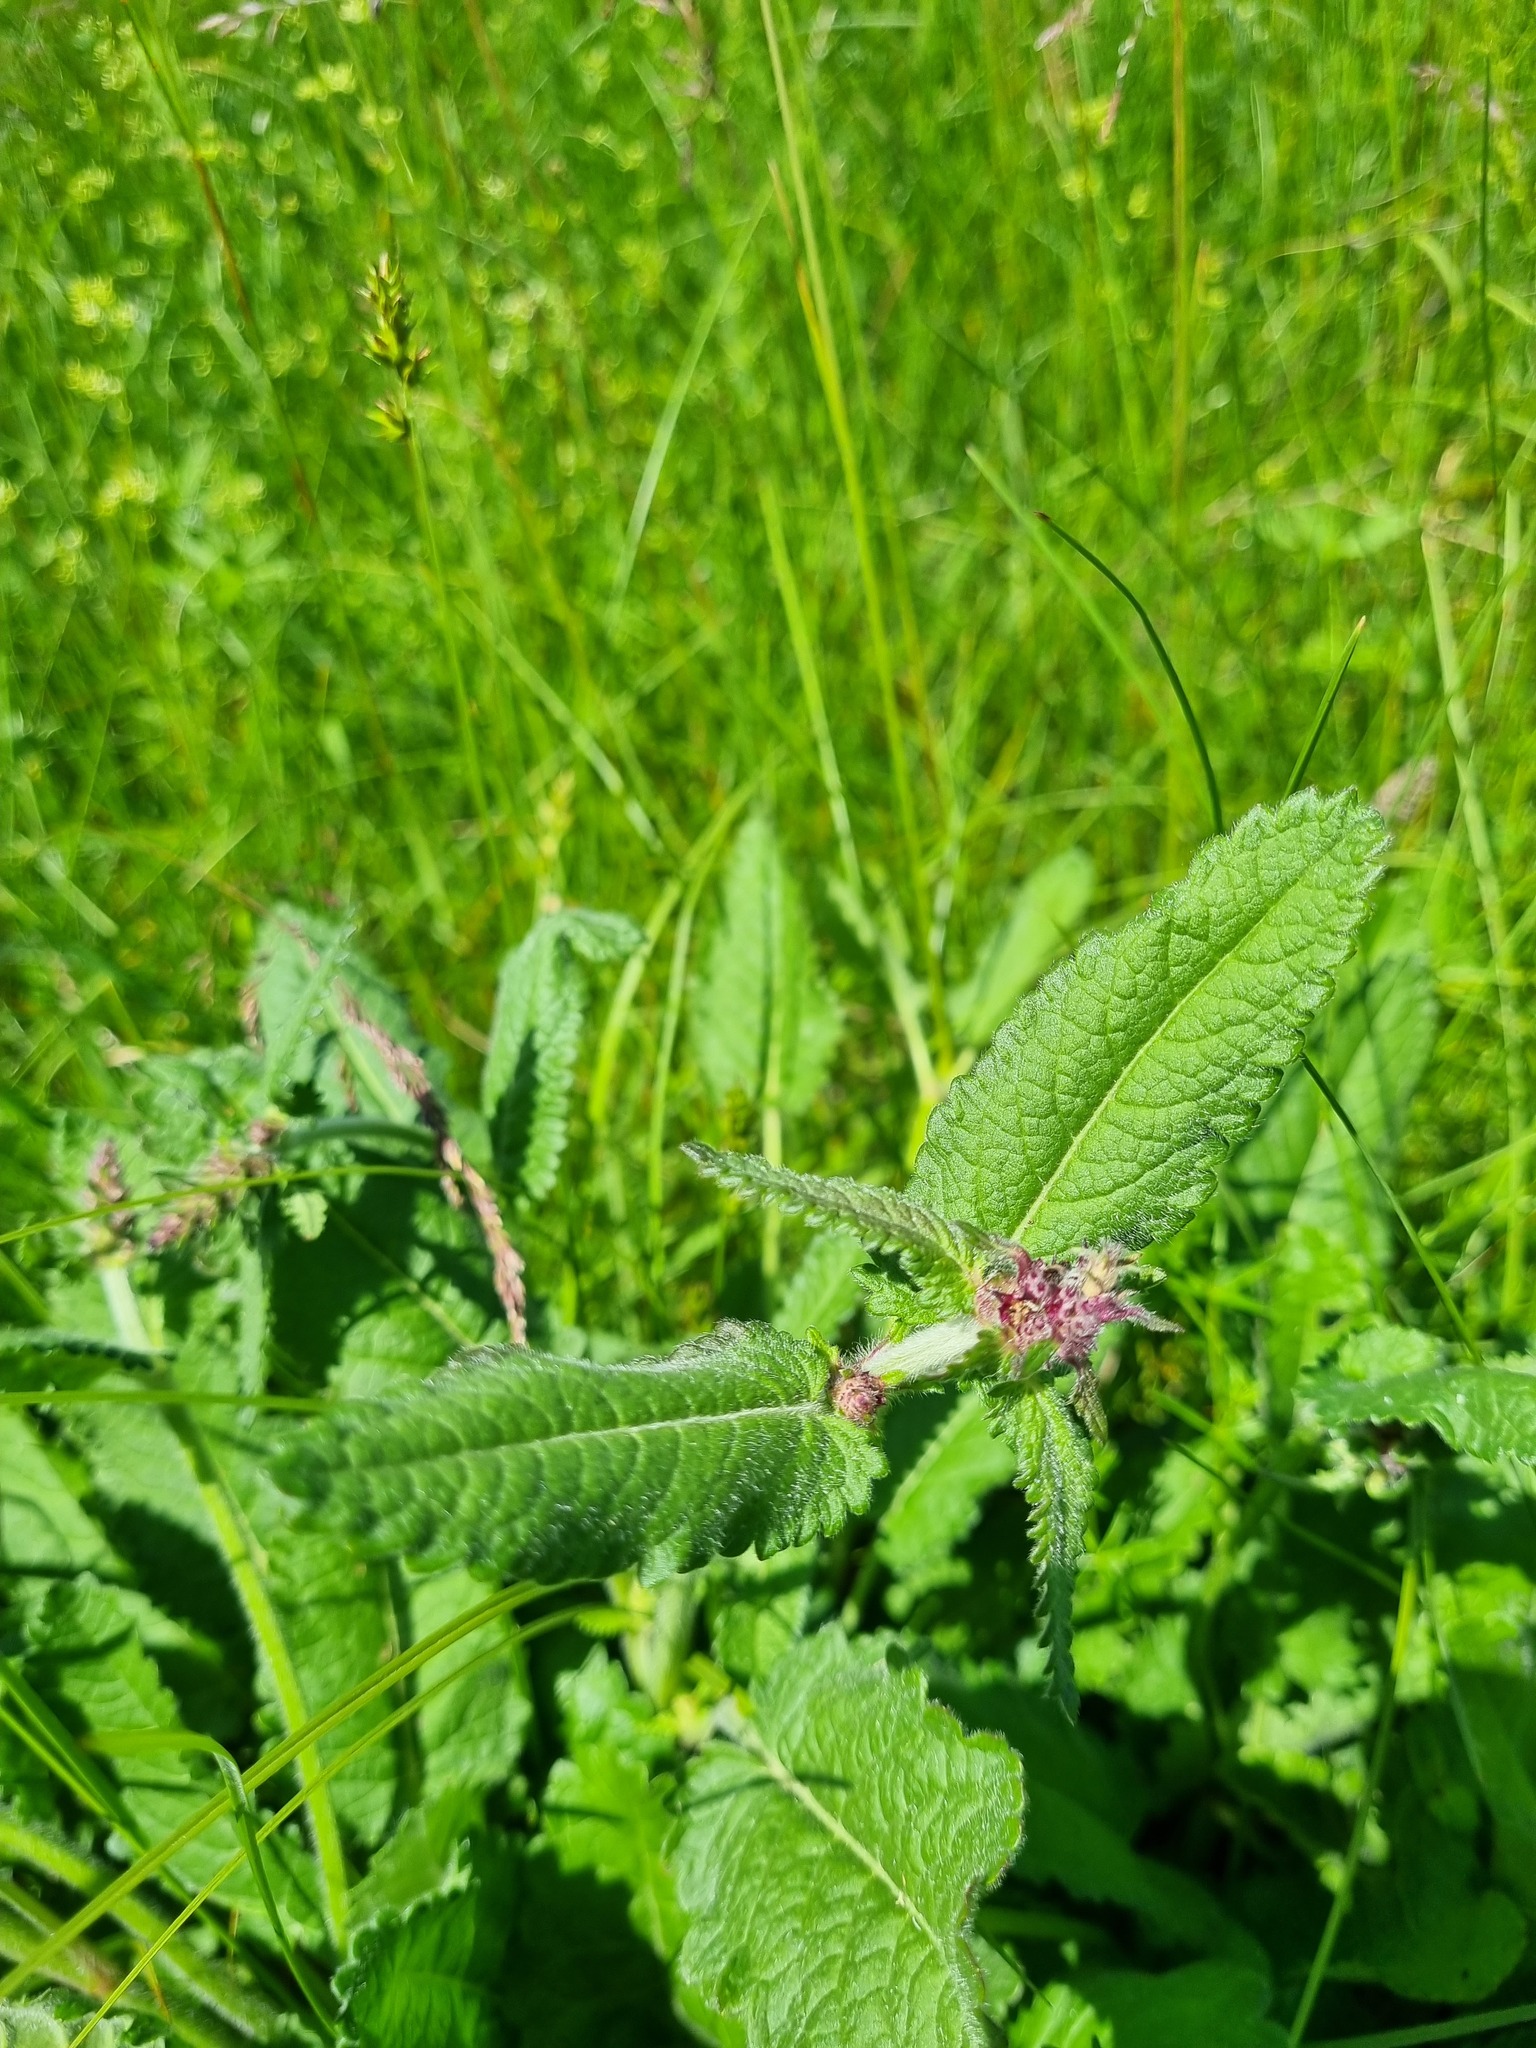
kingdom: Plantae
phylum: Tracheophyta
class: Magnoliopsida
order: Lamiales
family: Lamiaceae
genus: Betonica
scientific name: Betonica officinalis
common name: Bishop's-wort
